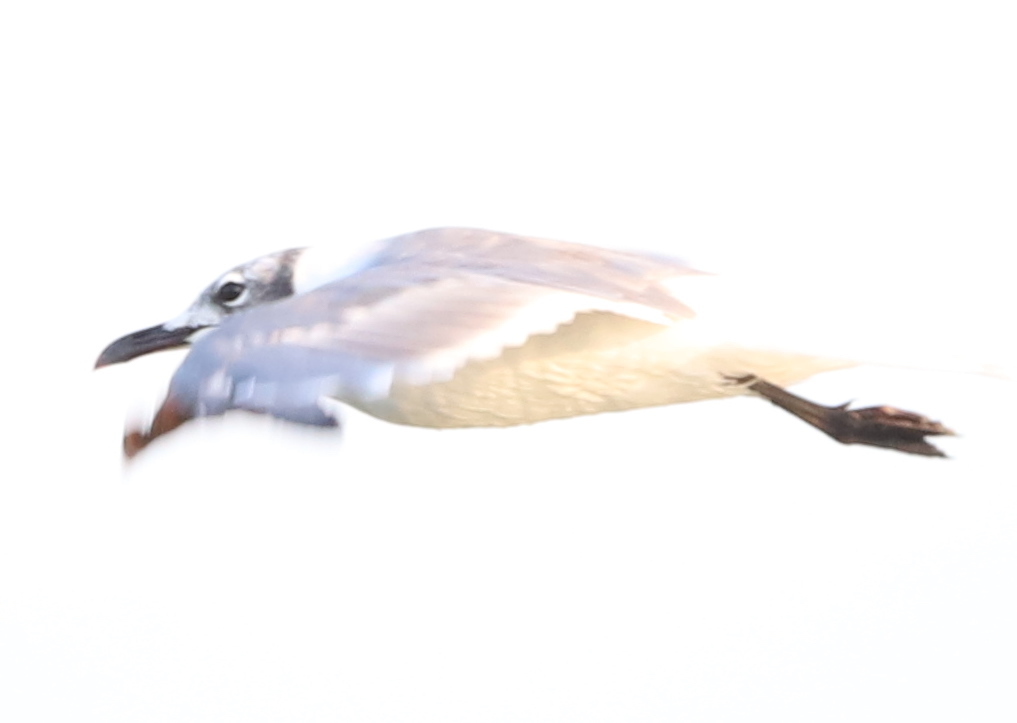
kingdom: Animalia
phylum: Chordata
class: Aves
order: Charadriiformes
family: Laridae
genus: Leucophaeus
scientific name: Leucophaeus atricilla
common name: Laughing gull
